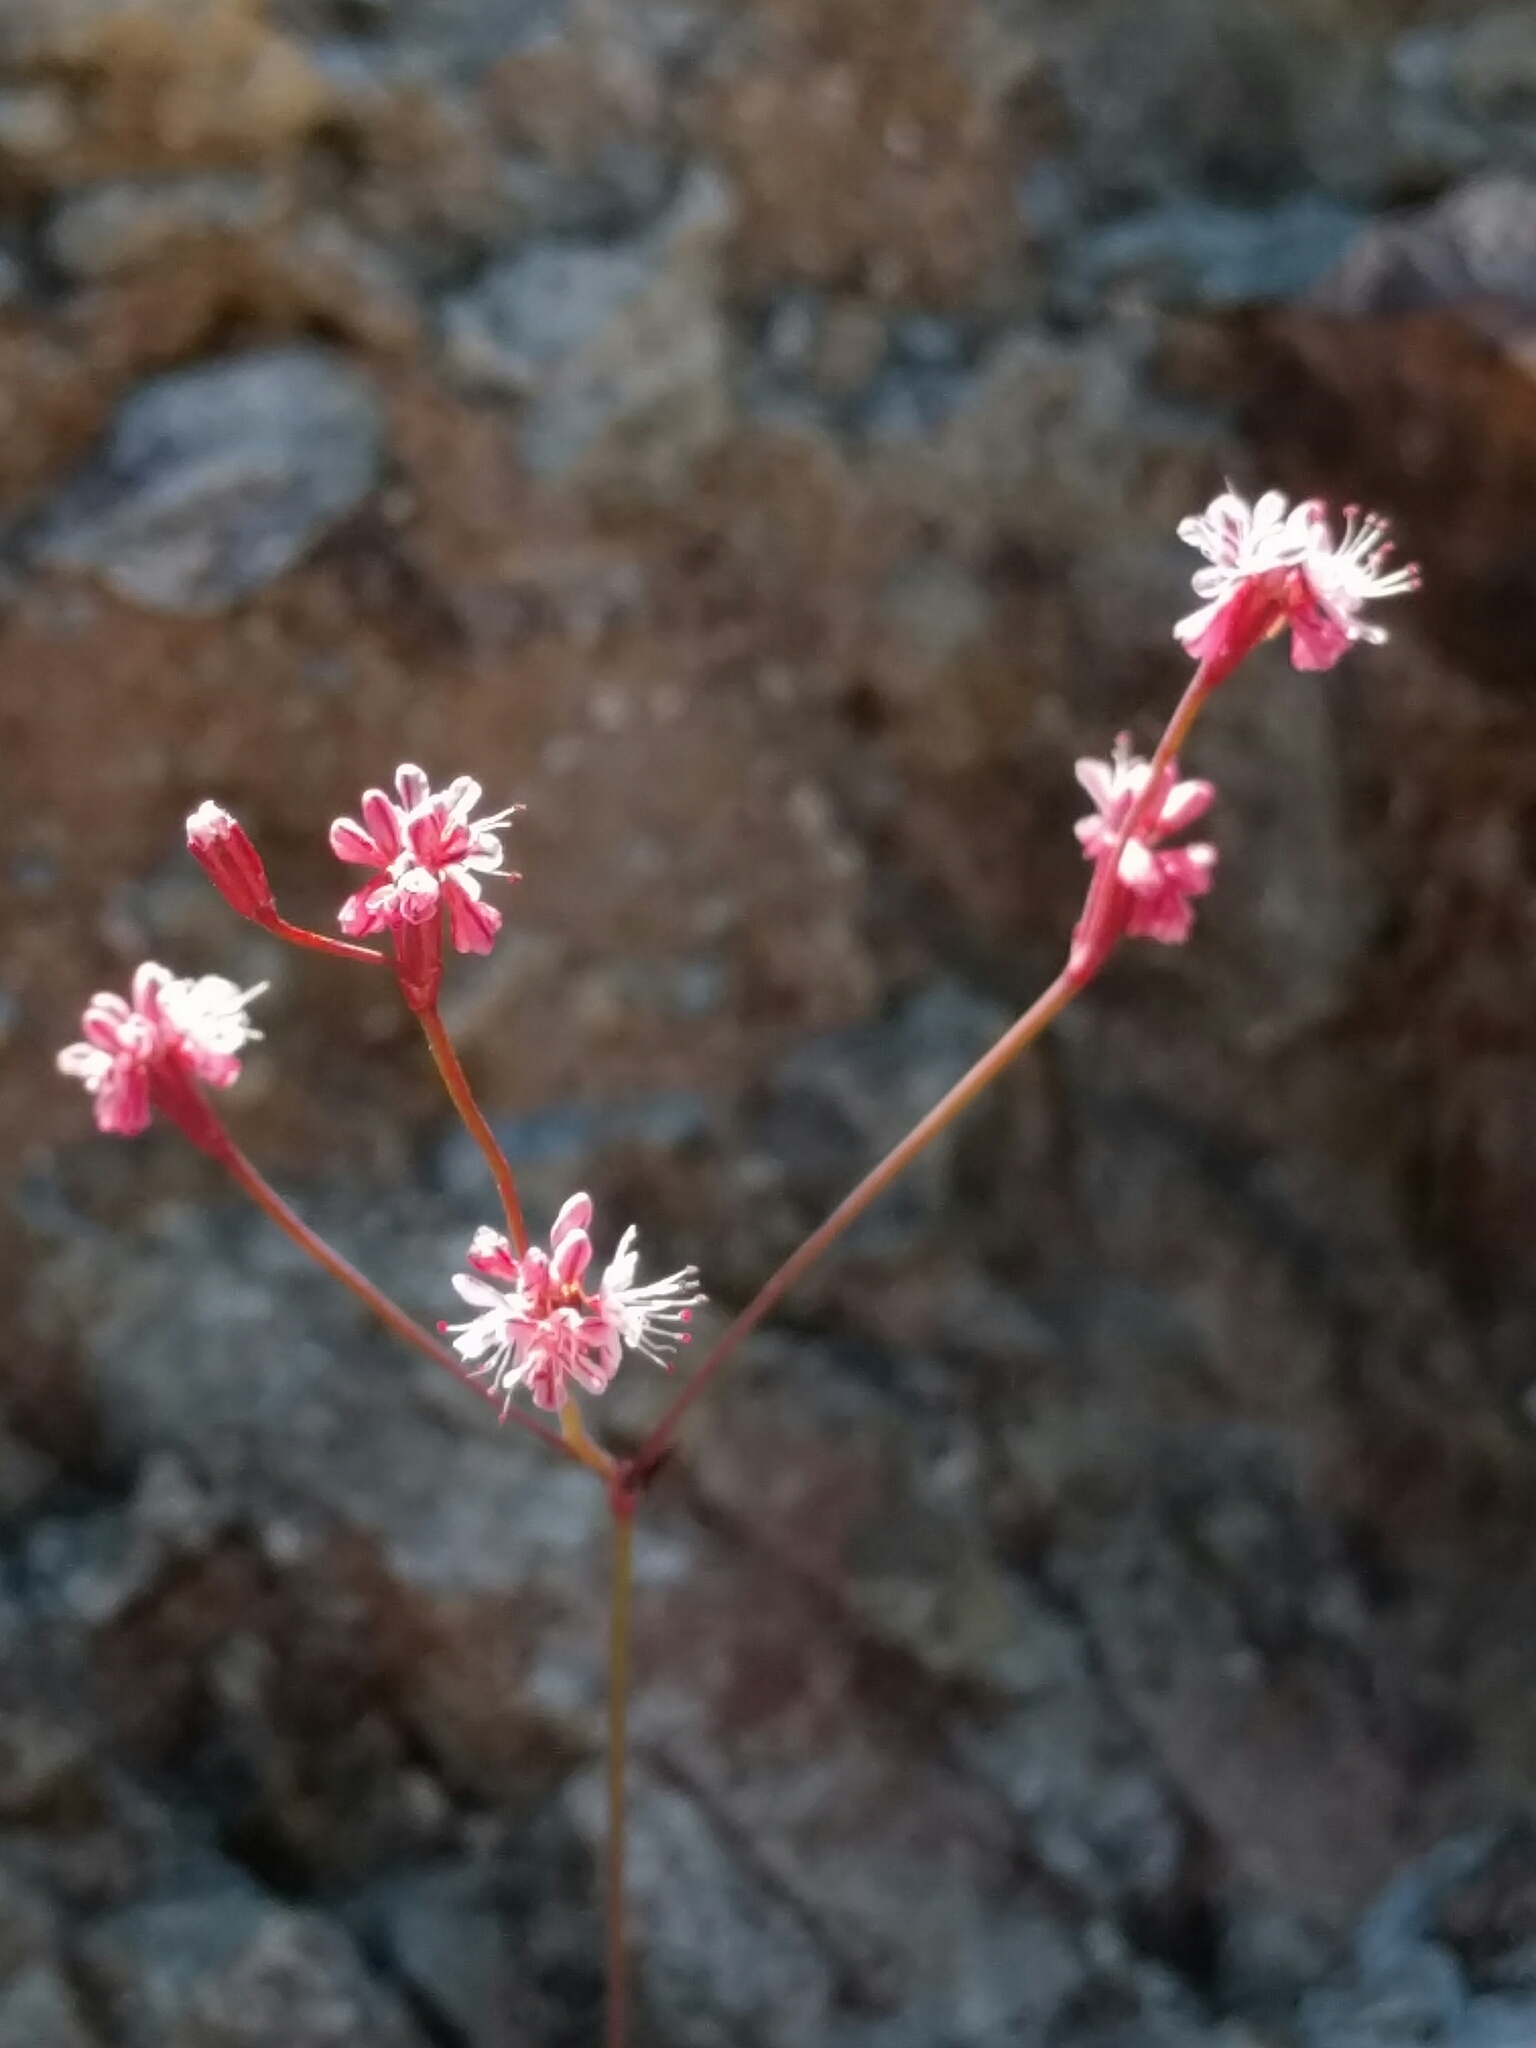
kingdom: Plantae
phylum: Tracheophyta
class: Magnoliopsida
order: Caryophyllales
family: Polygonaceae
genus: Eriogonum
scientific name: Eriogonum luteolum
